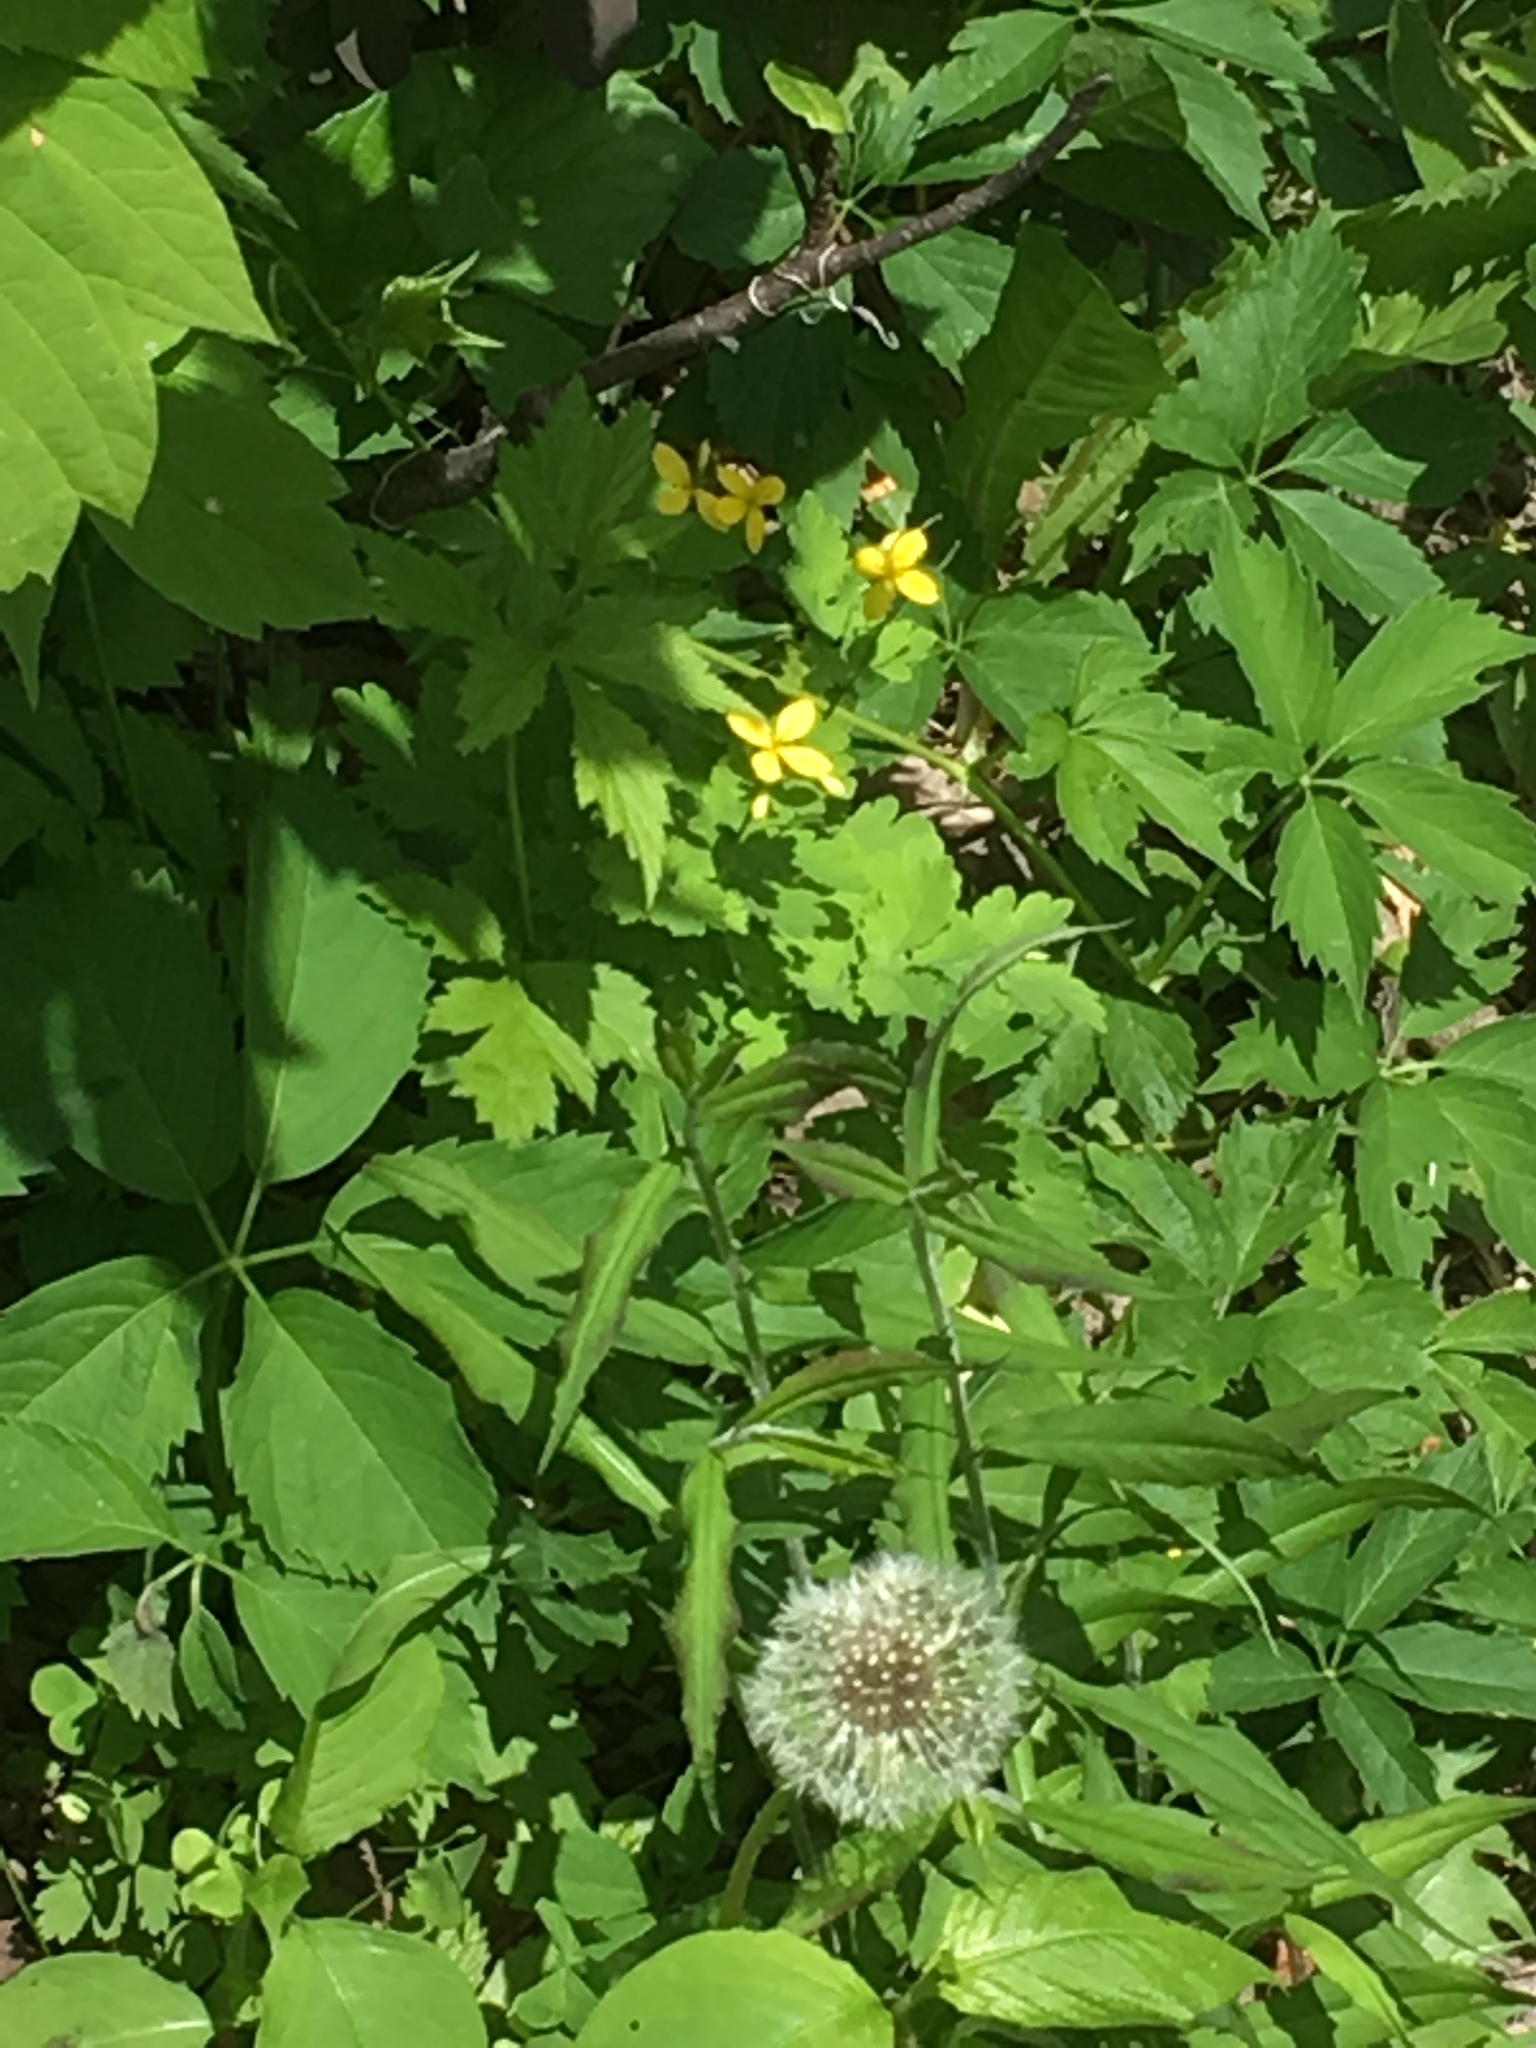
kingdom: Plantae
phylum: Tracheophyta
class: Magnoliopsida
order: Ranunculales
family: Papaveraceae
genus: Chelidonium
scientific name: Chelidonium majus
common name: Greater celandine
